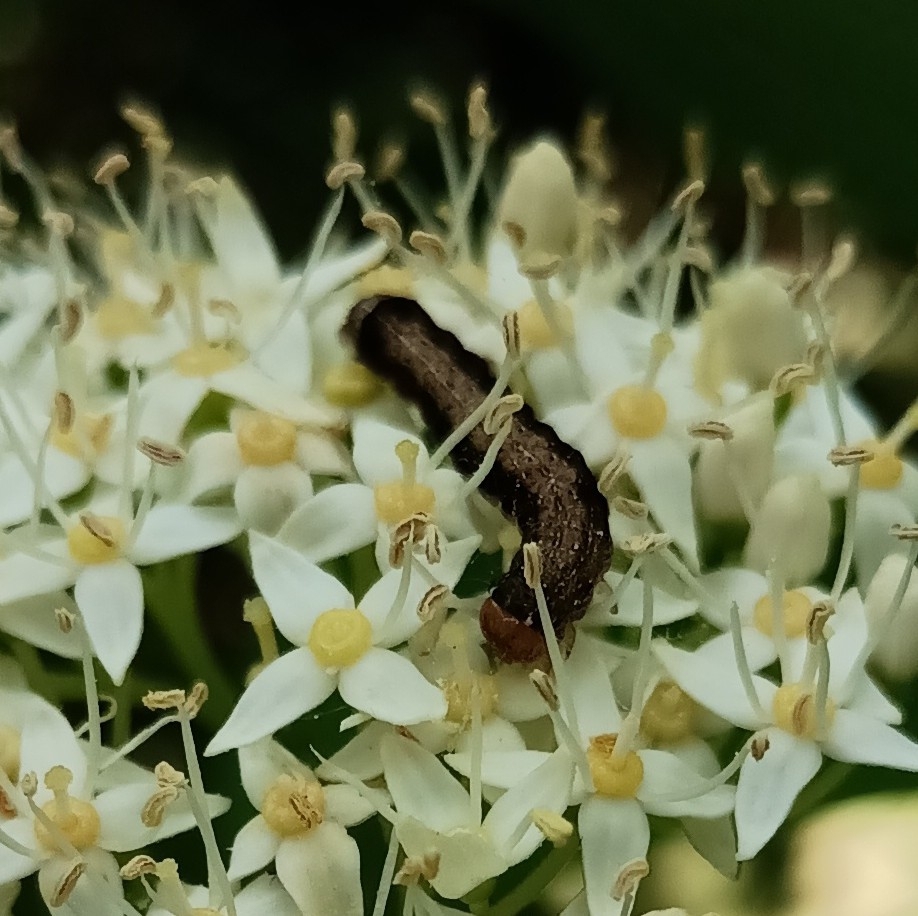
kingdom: Animalia
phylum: Arthropoda
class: Insecta
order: Lepidoptera
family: Noctuidae
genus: Anorthoa
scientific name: Anorthoa munda
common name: Twin-spotted quaker
